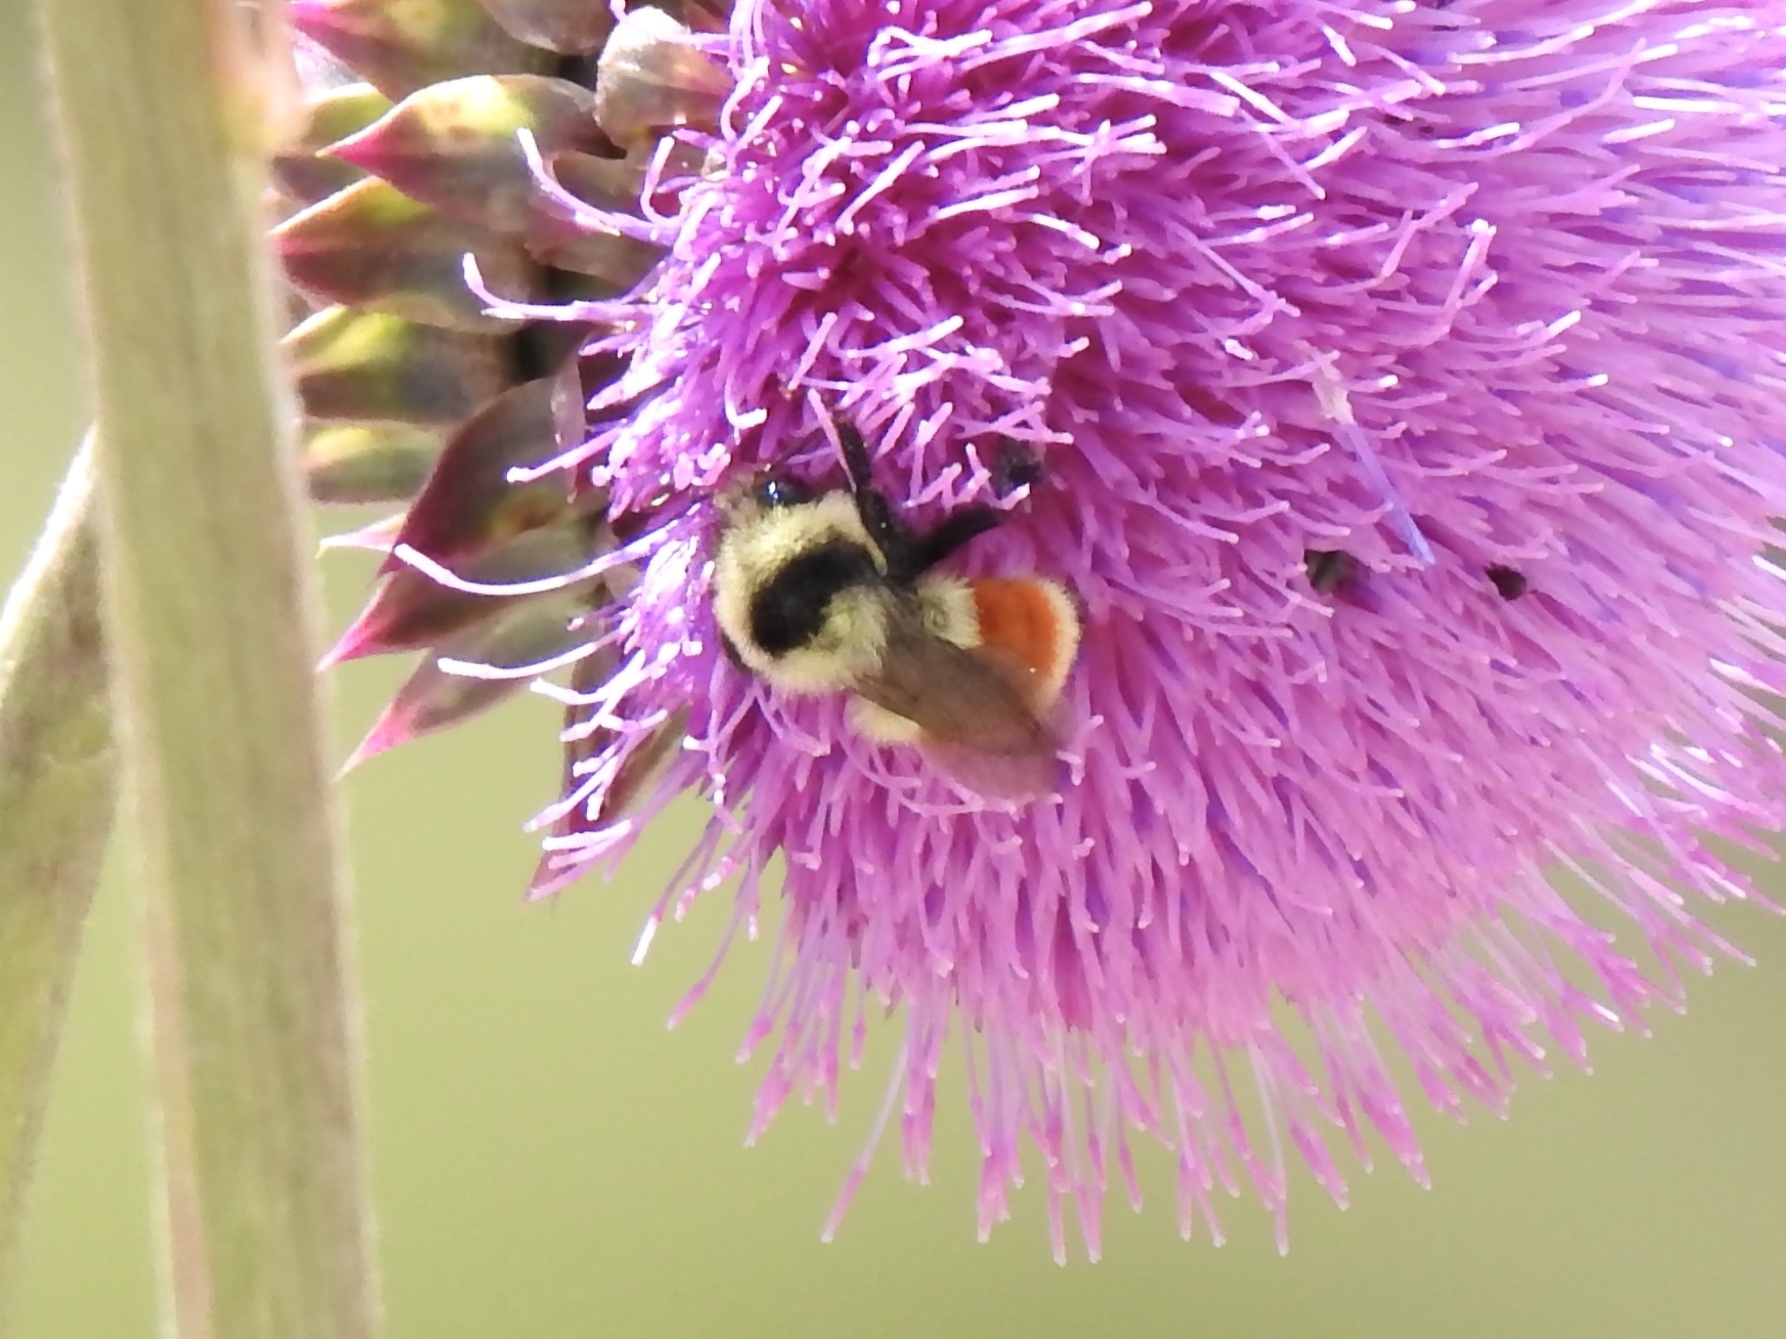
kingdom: Animalia
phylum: Arthropoda
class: Insecta
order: Hymenoptera
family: Apidae
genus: Bombus
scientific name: Bombus huntii
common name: Hunt bumble bee
